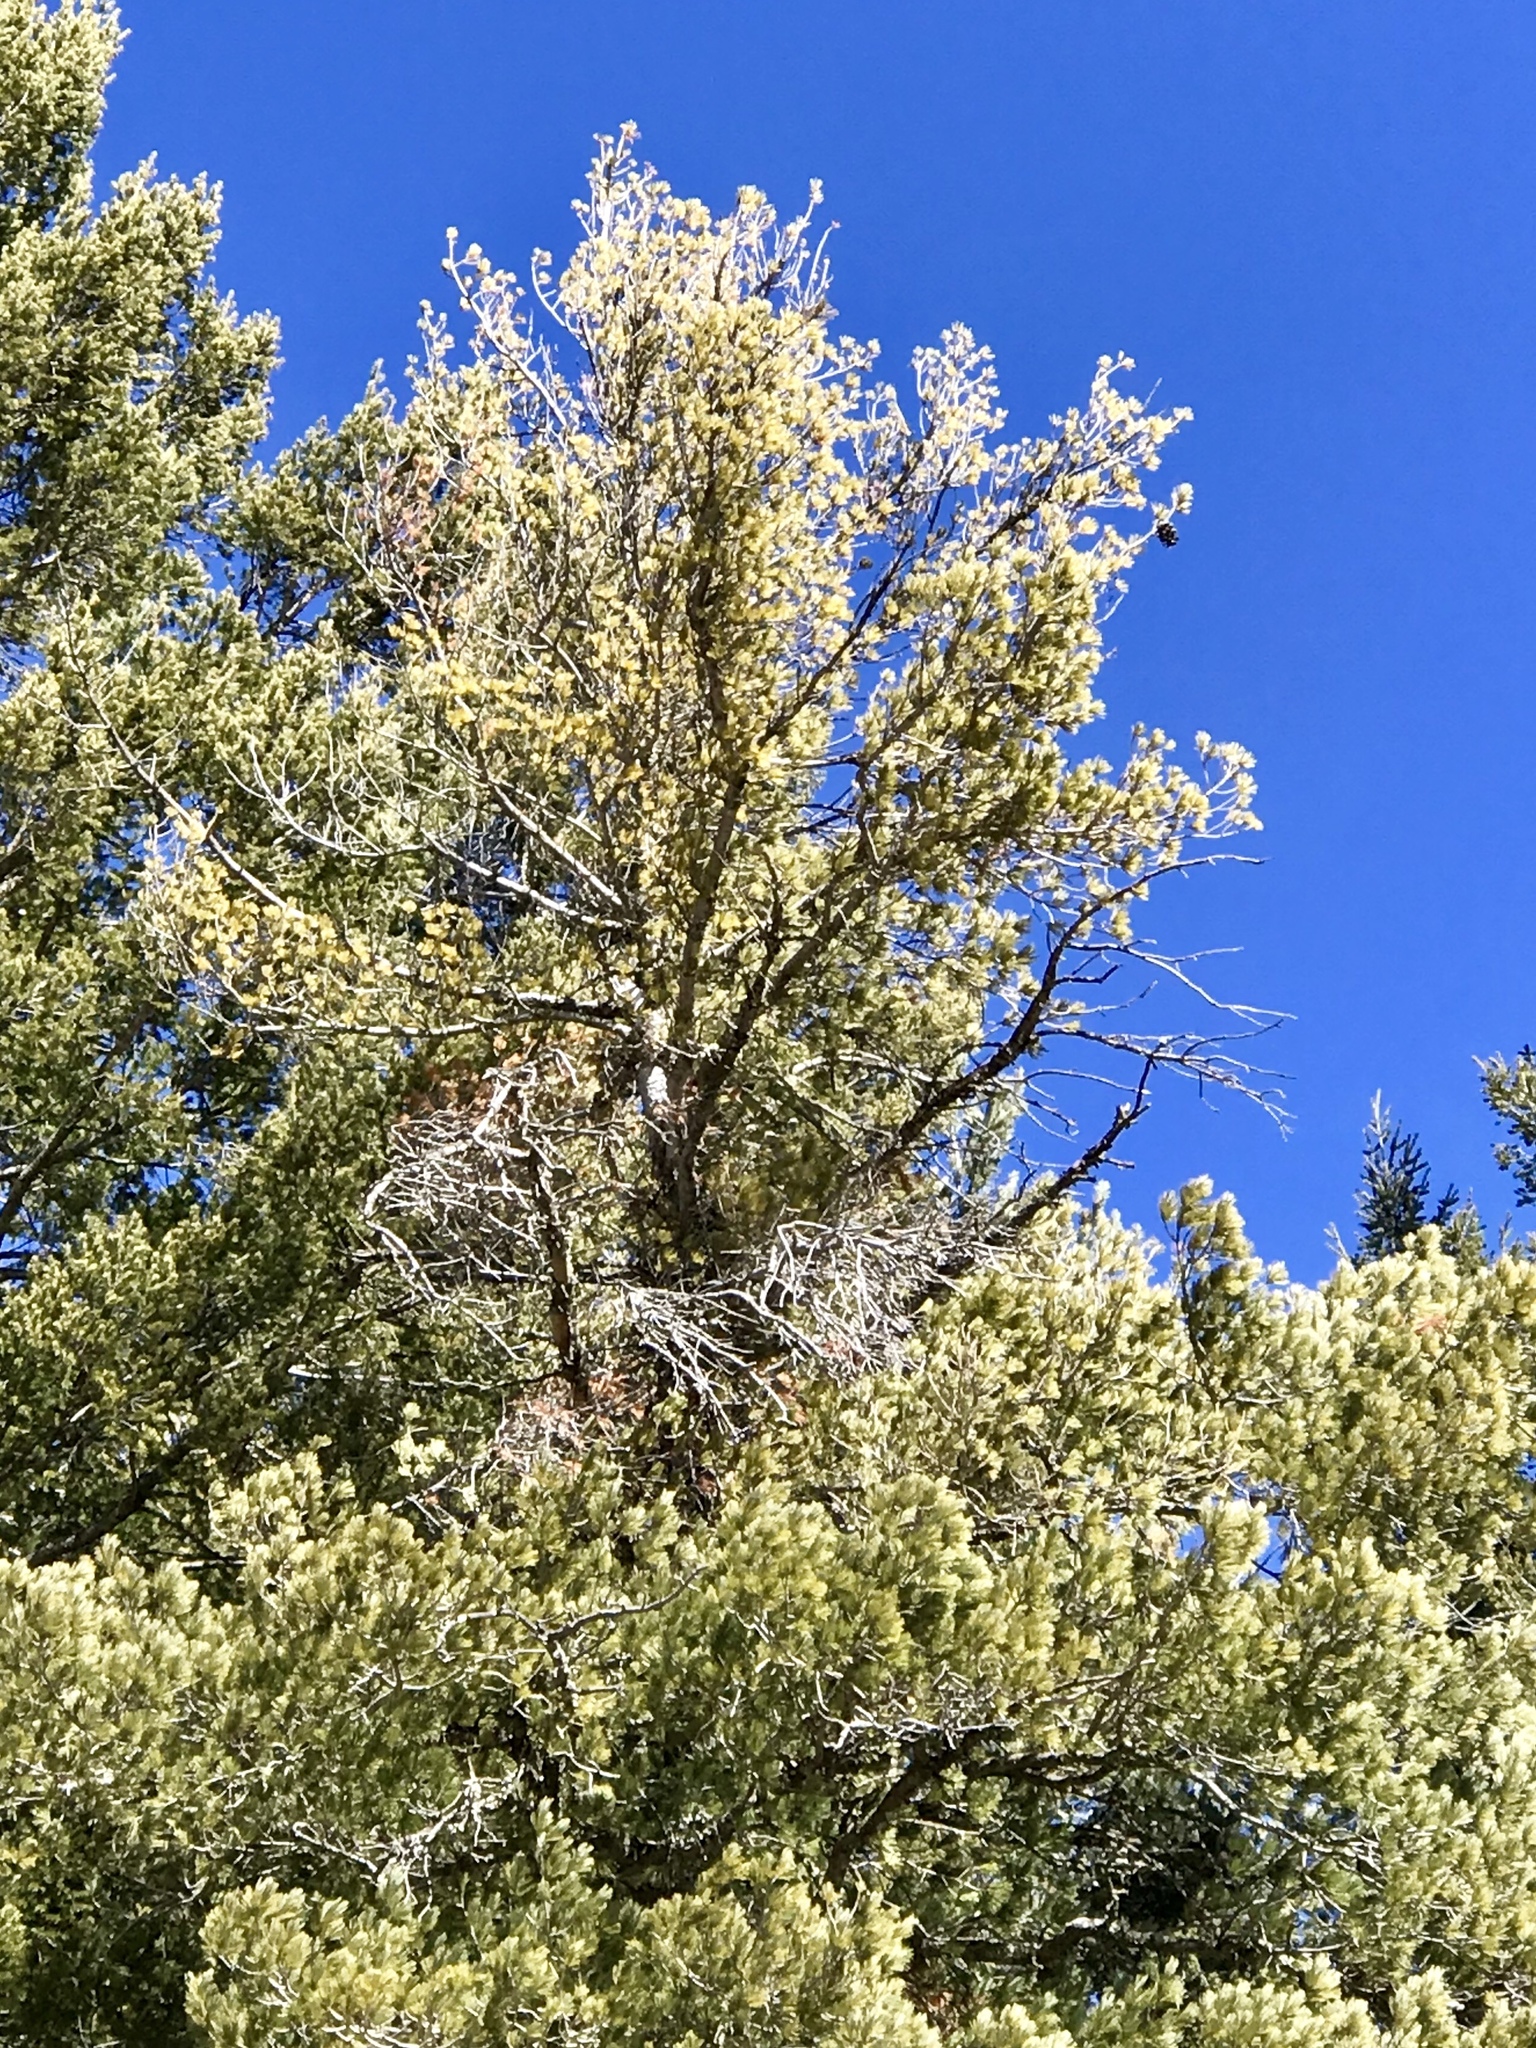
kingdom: Plantae
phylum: Tracheophyta
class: Pinopsida
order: Pinales
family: Pinaceae
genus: Pinus
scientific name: Pinus strobiformis
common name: Southwestern white pine
